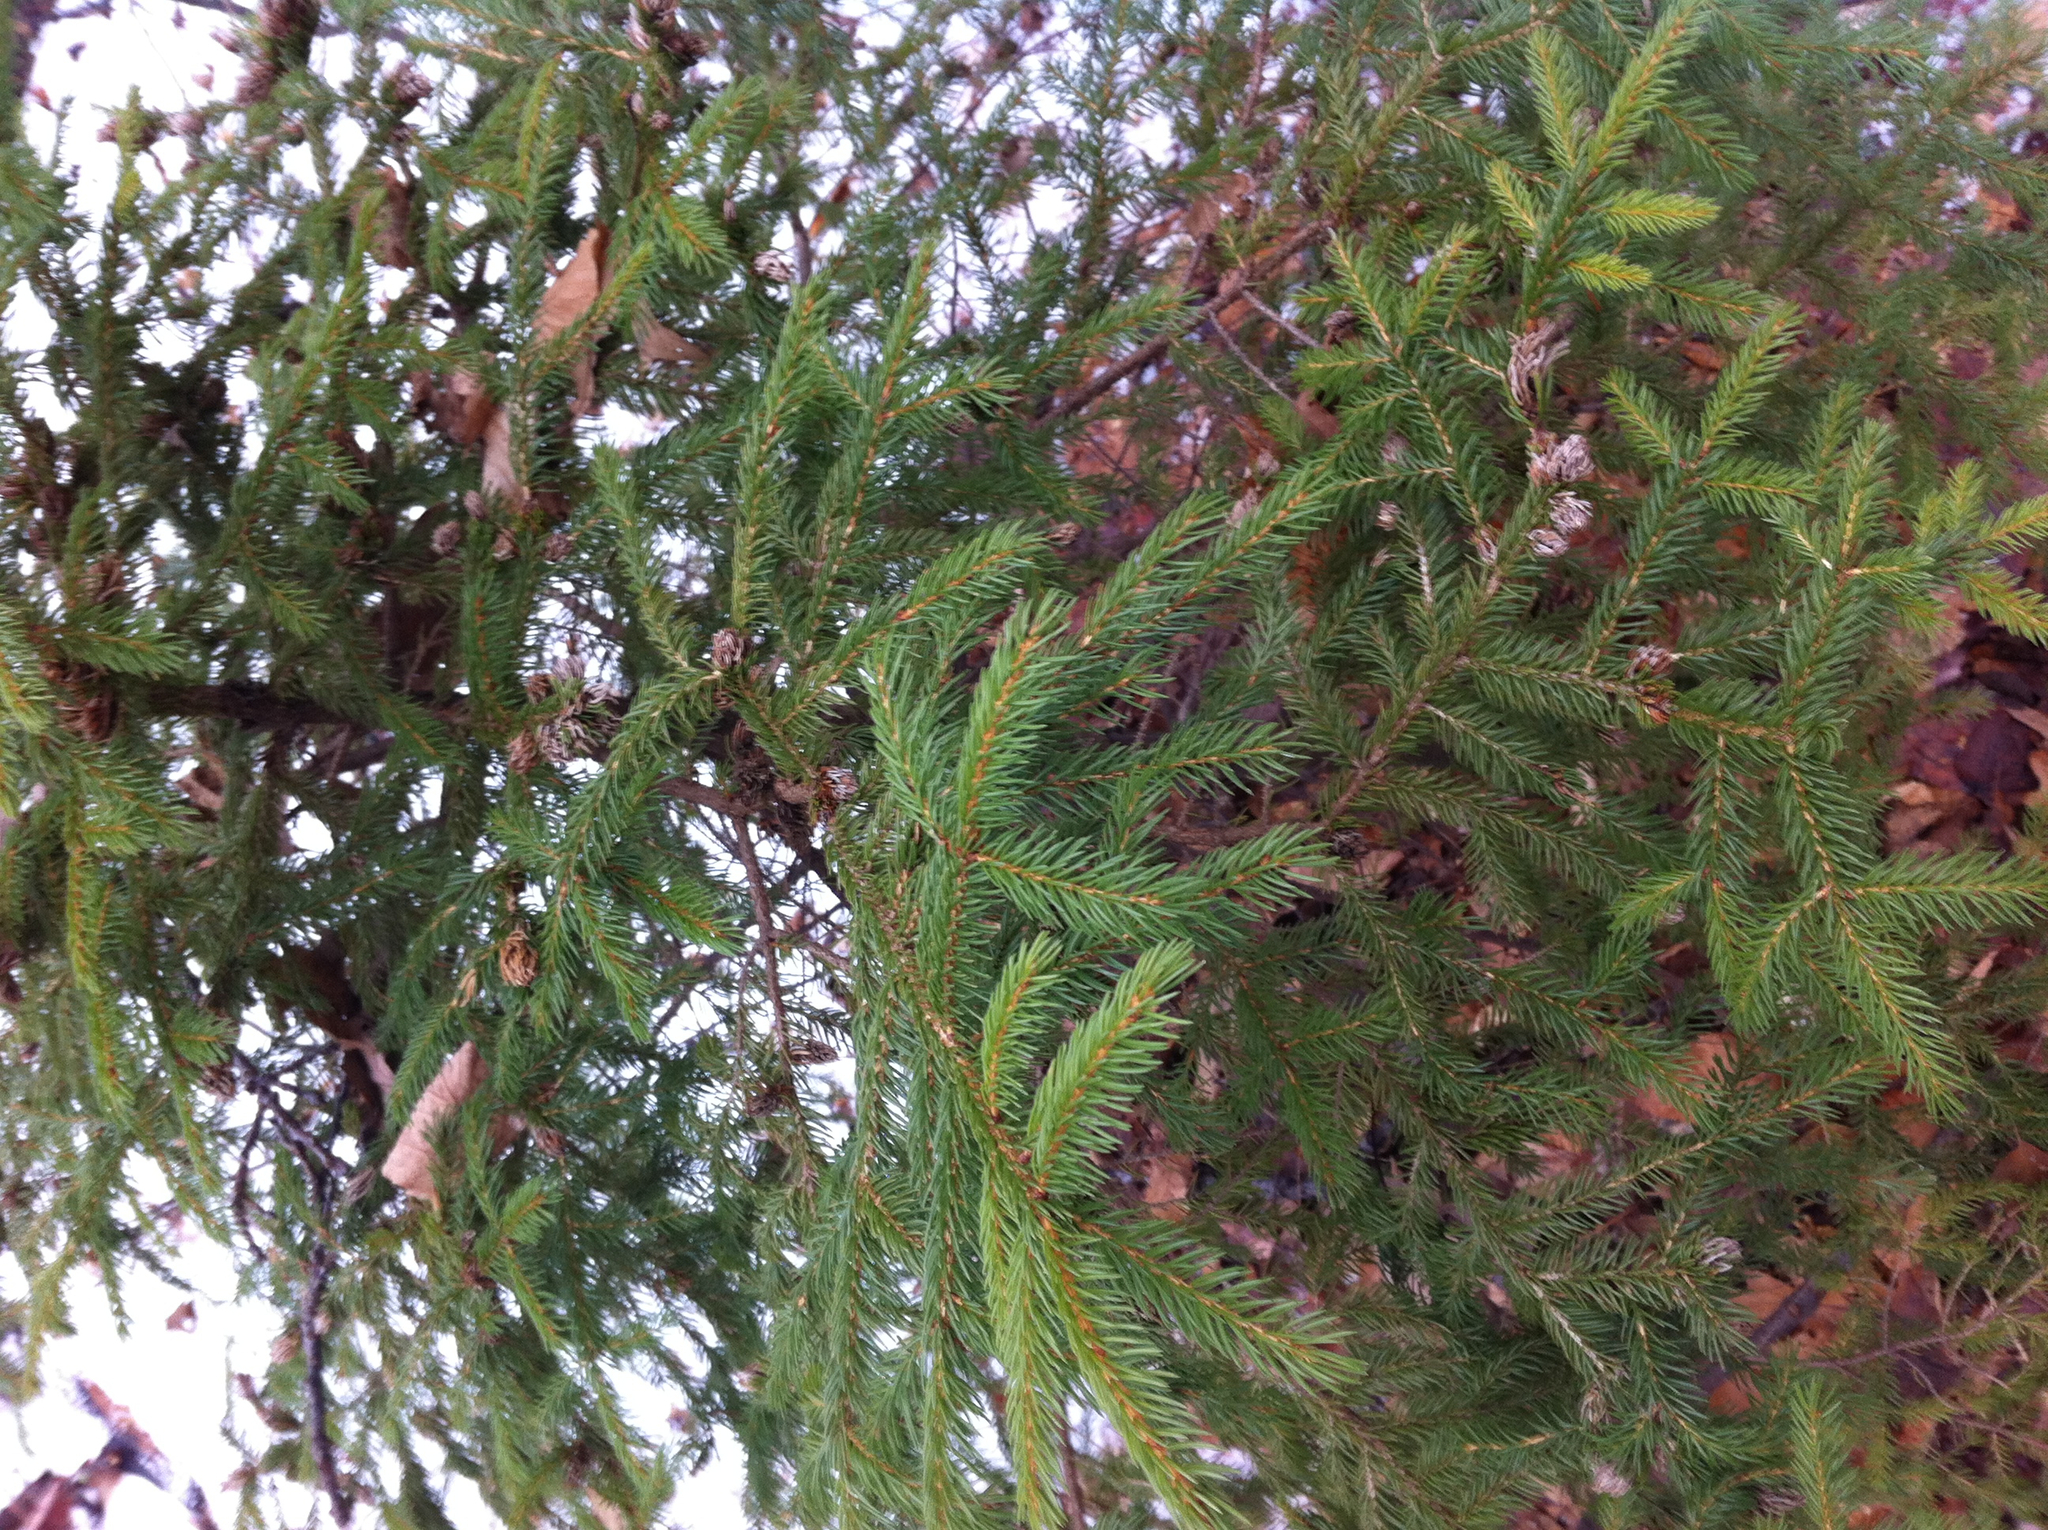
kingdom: Plantae
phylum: Tracheophyta
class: Pinopsida
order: Pinales
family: Pinaceae
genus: Picea
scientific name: Picea rubens
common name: Red spruce
